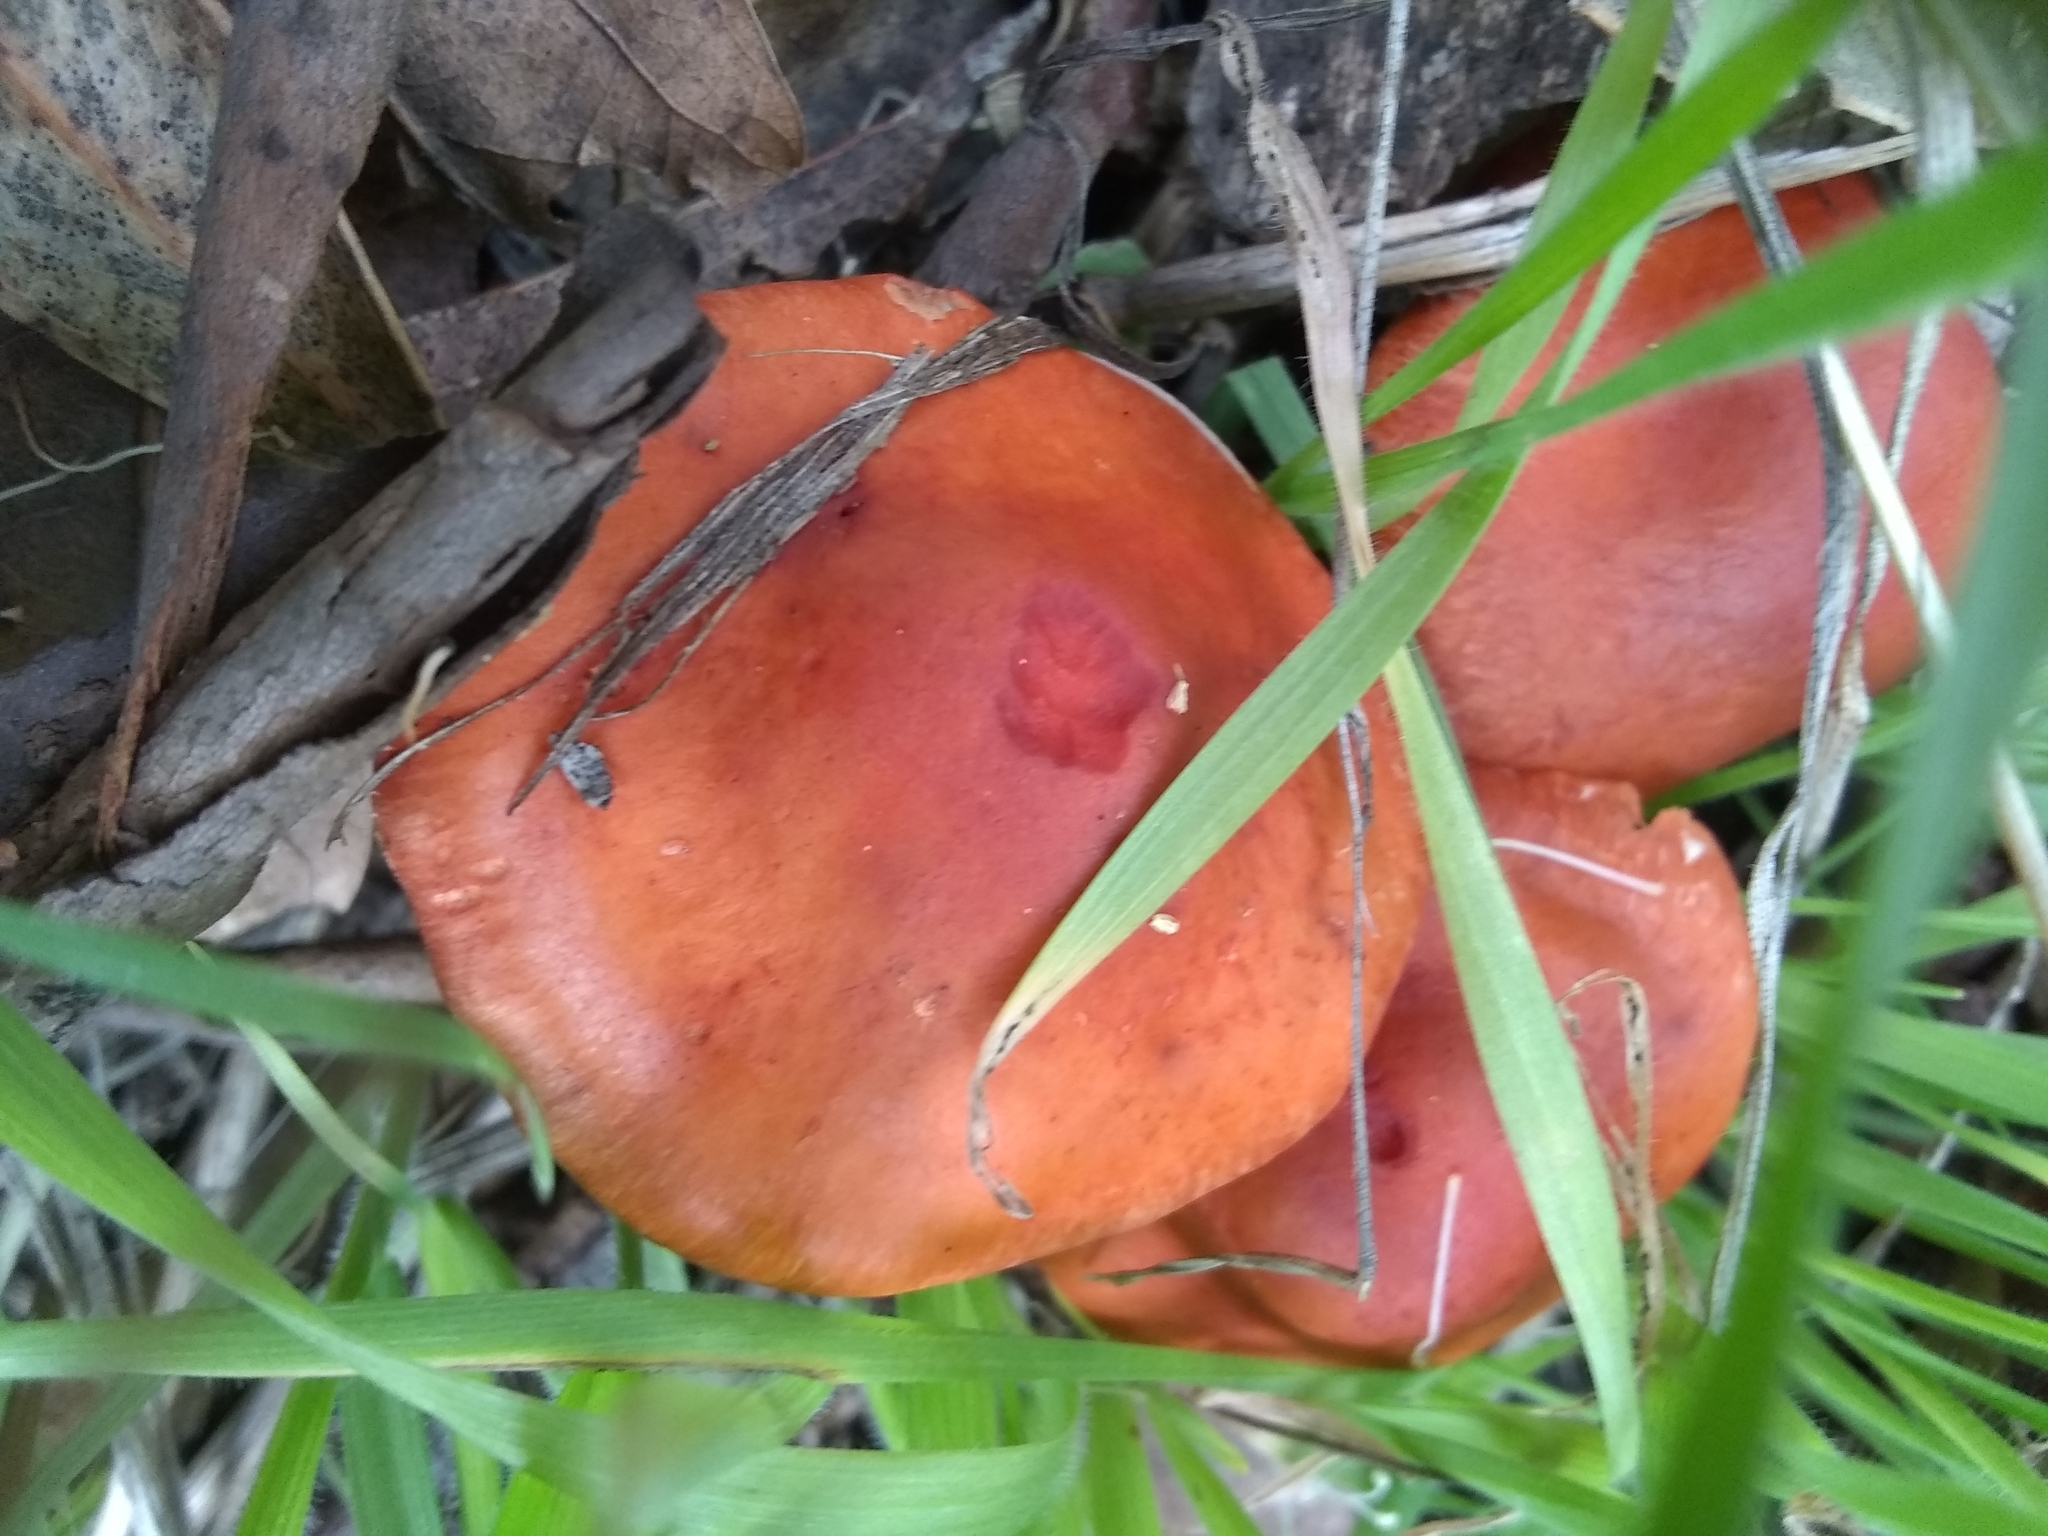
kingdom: Fungi
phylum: Basidiomycota
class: Agaricomycetes
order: Agaricales
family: Strophariaceae
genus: Leratiomyces
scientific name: Leratiomyces ceres
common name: Redlead roundhead
